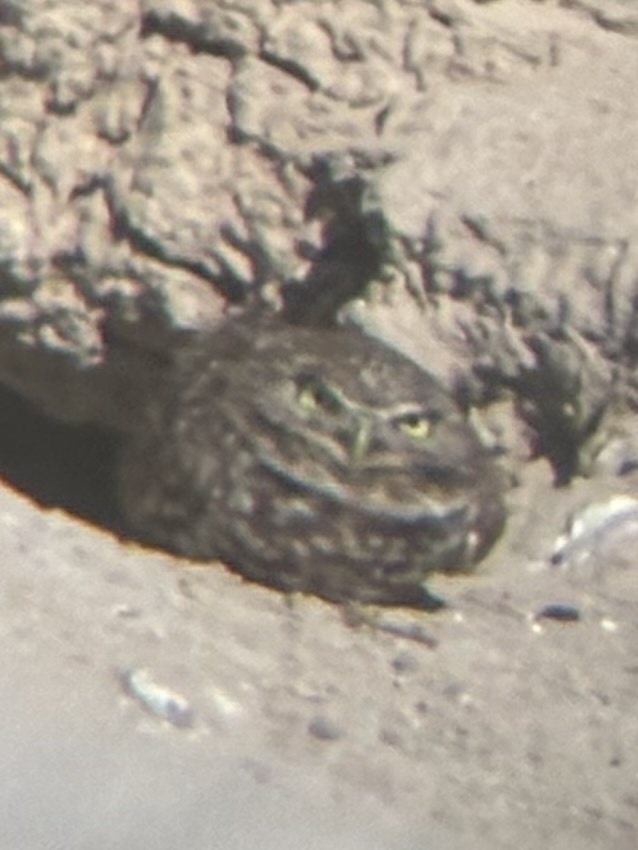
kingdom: Animalia
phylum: Chordata
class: Aves
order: Strigiformes
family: Strigidae
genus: Athene
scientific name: Athene cunicularia
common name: Burrowing owl
